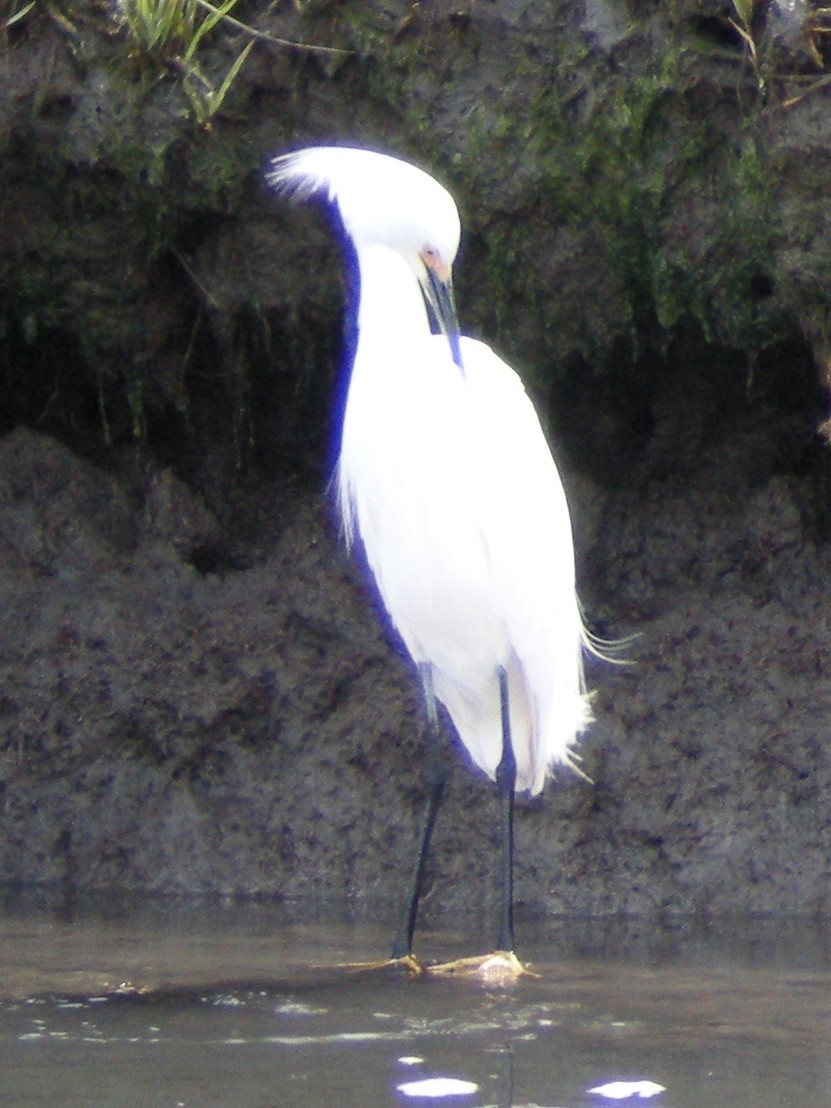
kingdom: Animalia
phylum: Chordata
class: Aves
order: Pelecaniformes
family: Ardeidae
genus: Egretta
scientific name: Egretta thula
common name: Snowy egret
